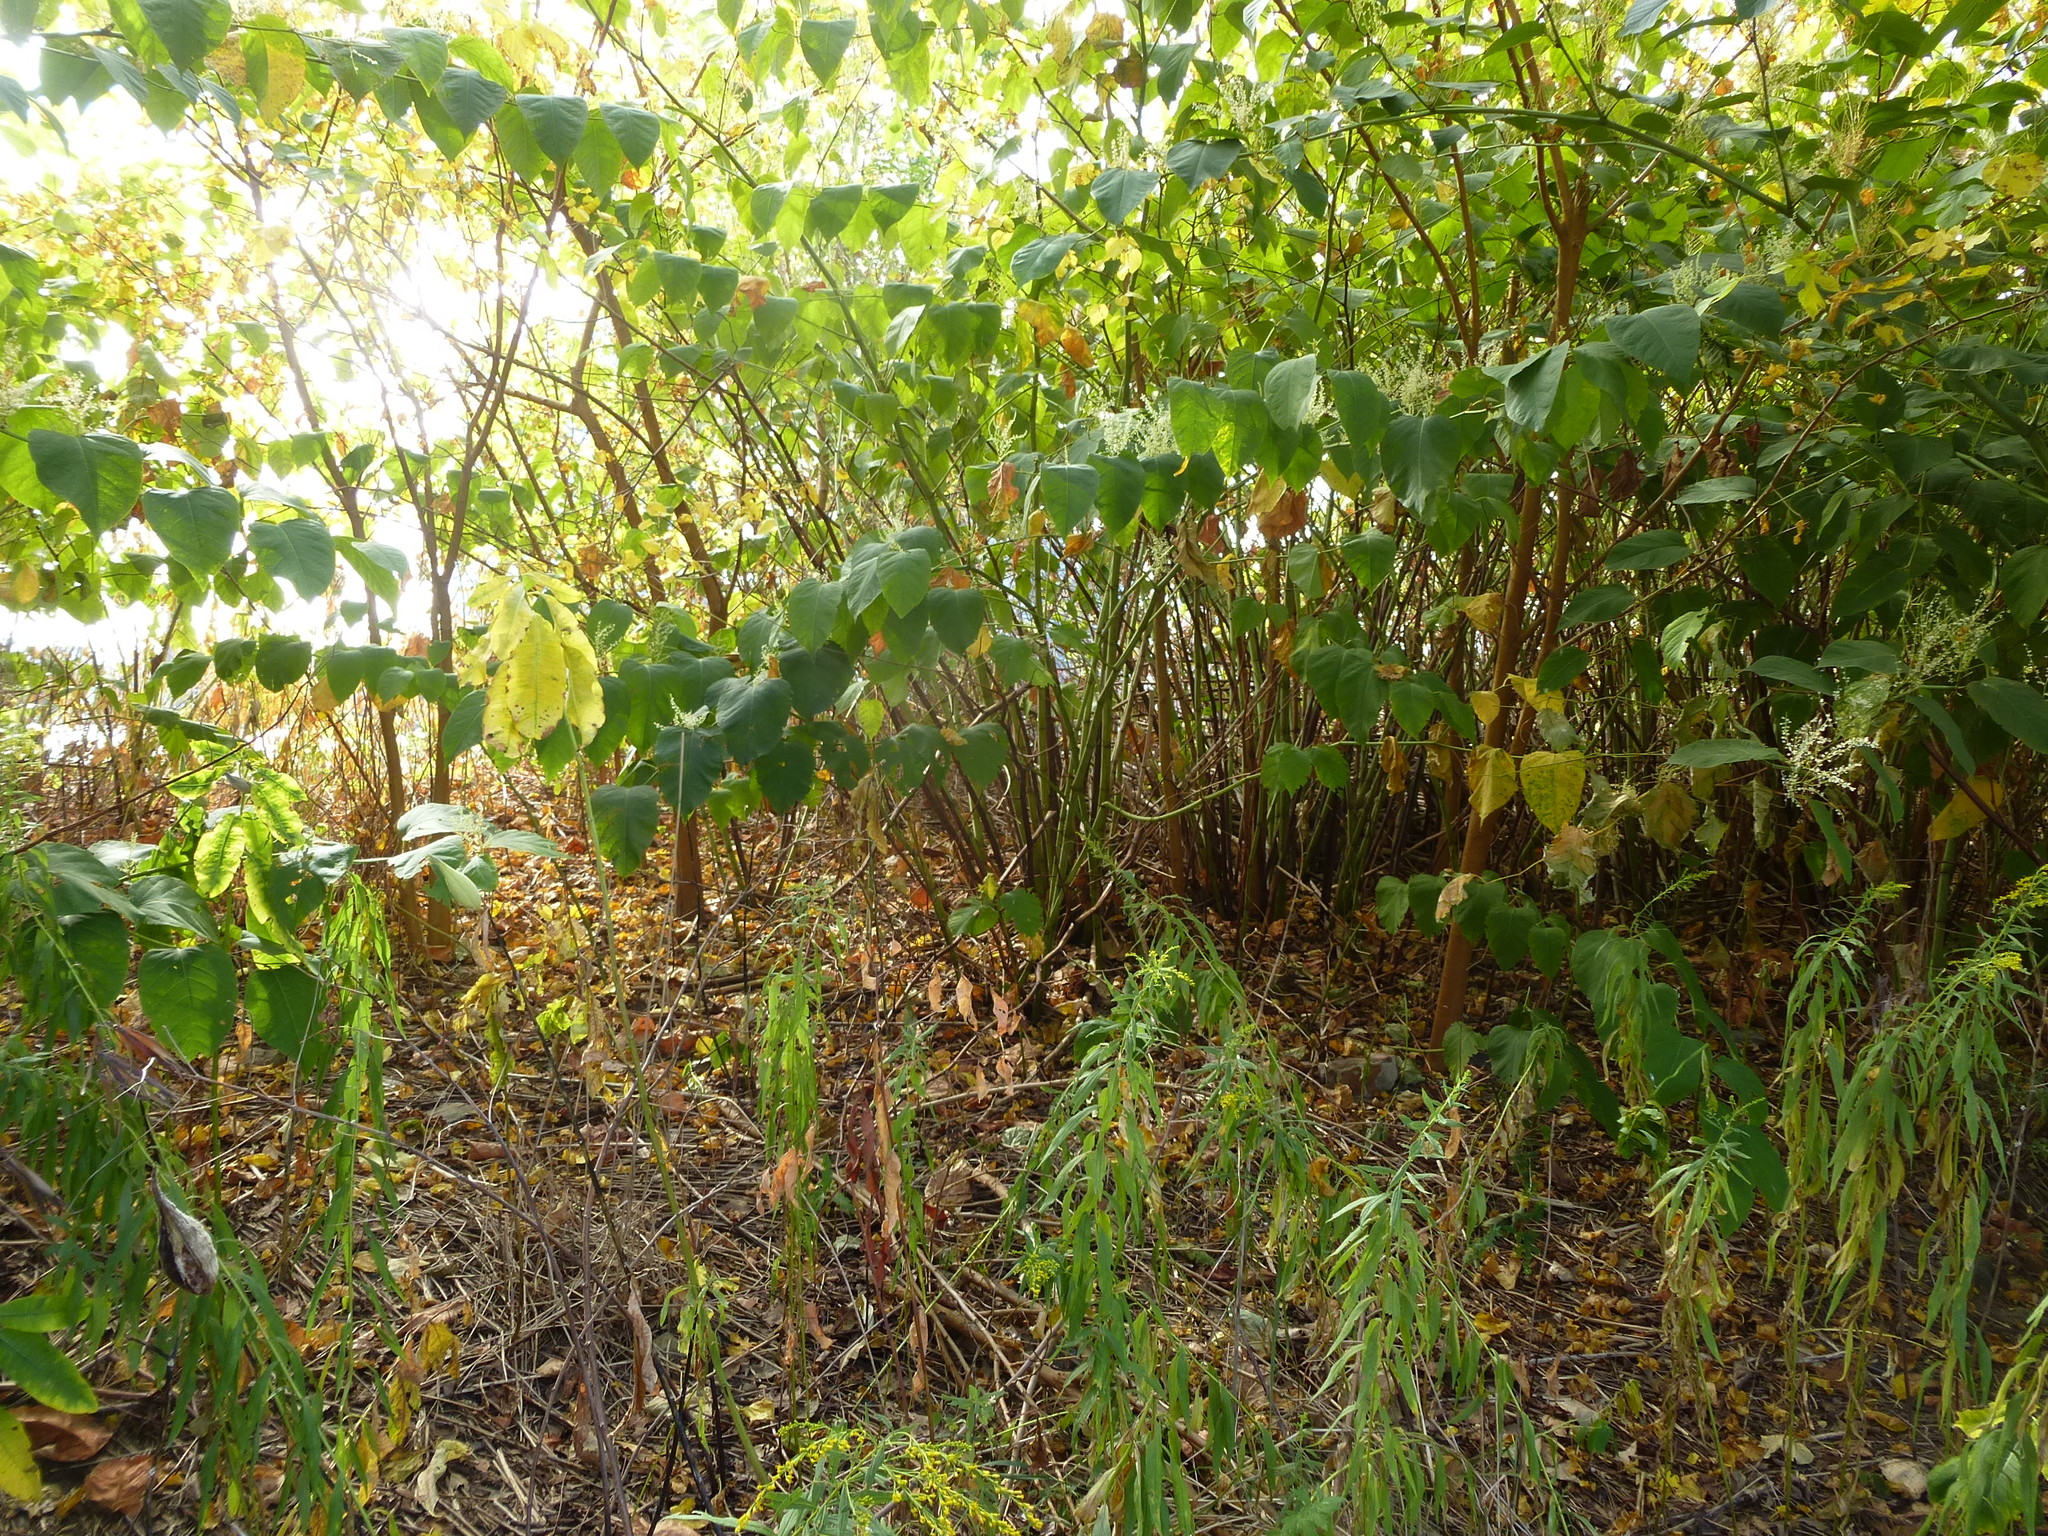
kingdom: Plantae
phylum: Tracheophyta
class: Magnoliopsida
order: Caryophyllales
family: Polygonaceae
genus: Reynoutria
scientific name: Reynoutria japonica
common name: Japanese knotweed
